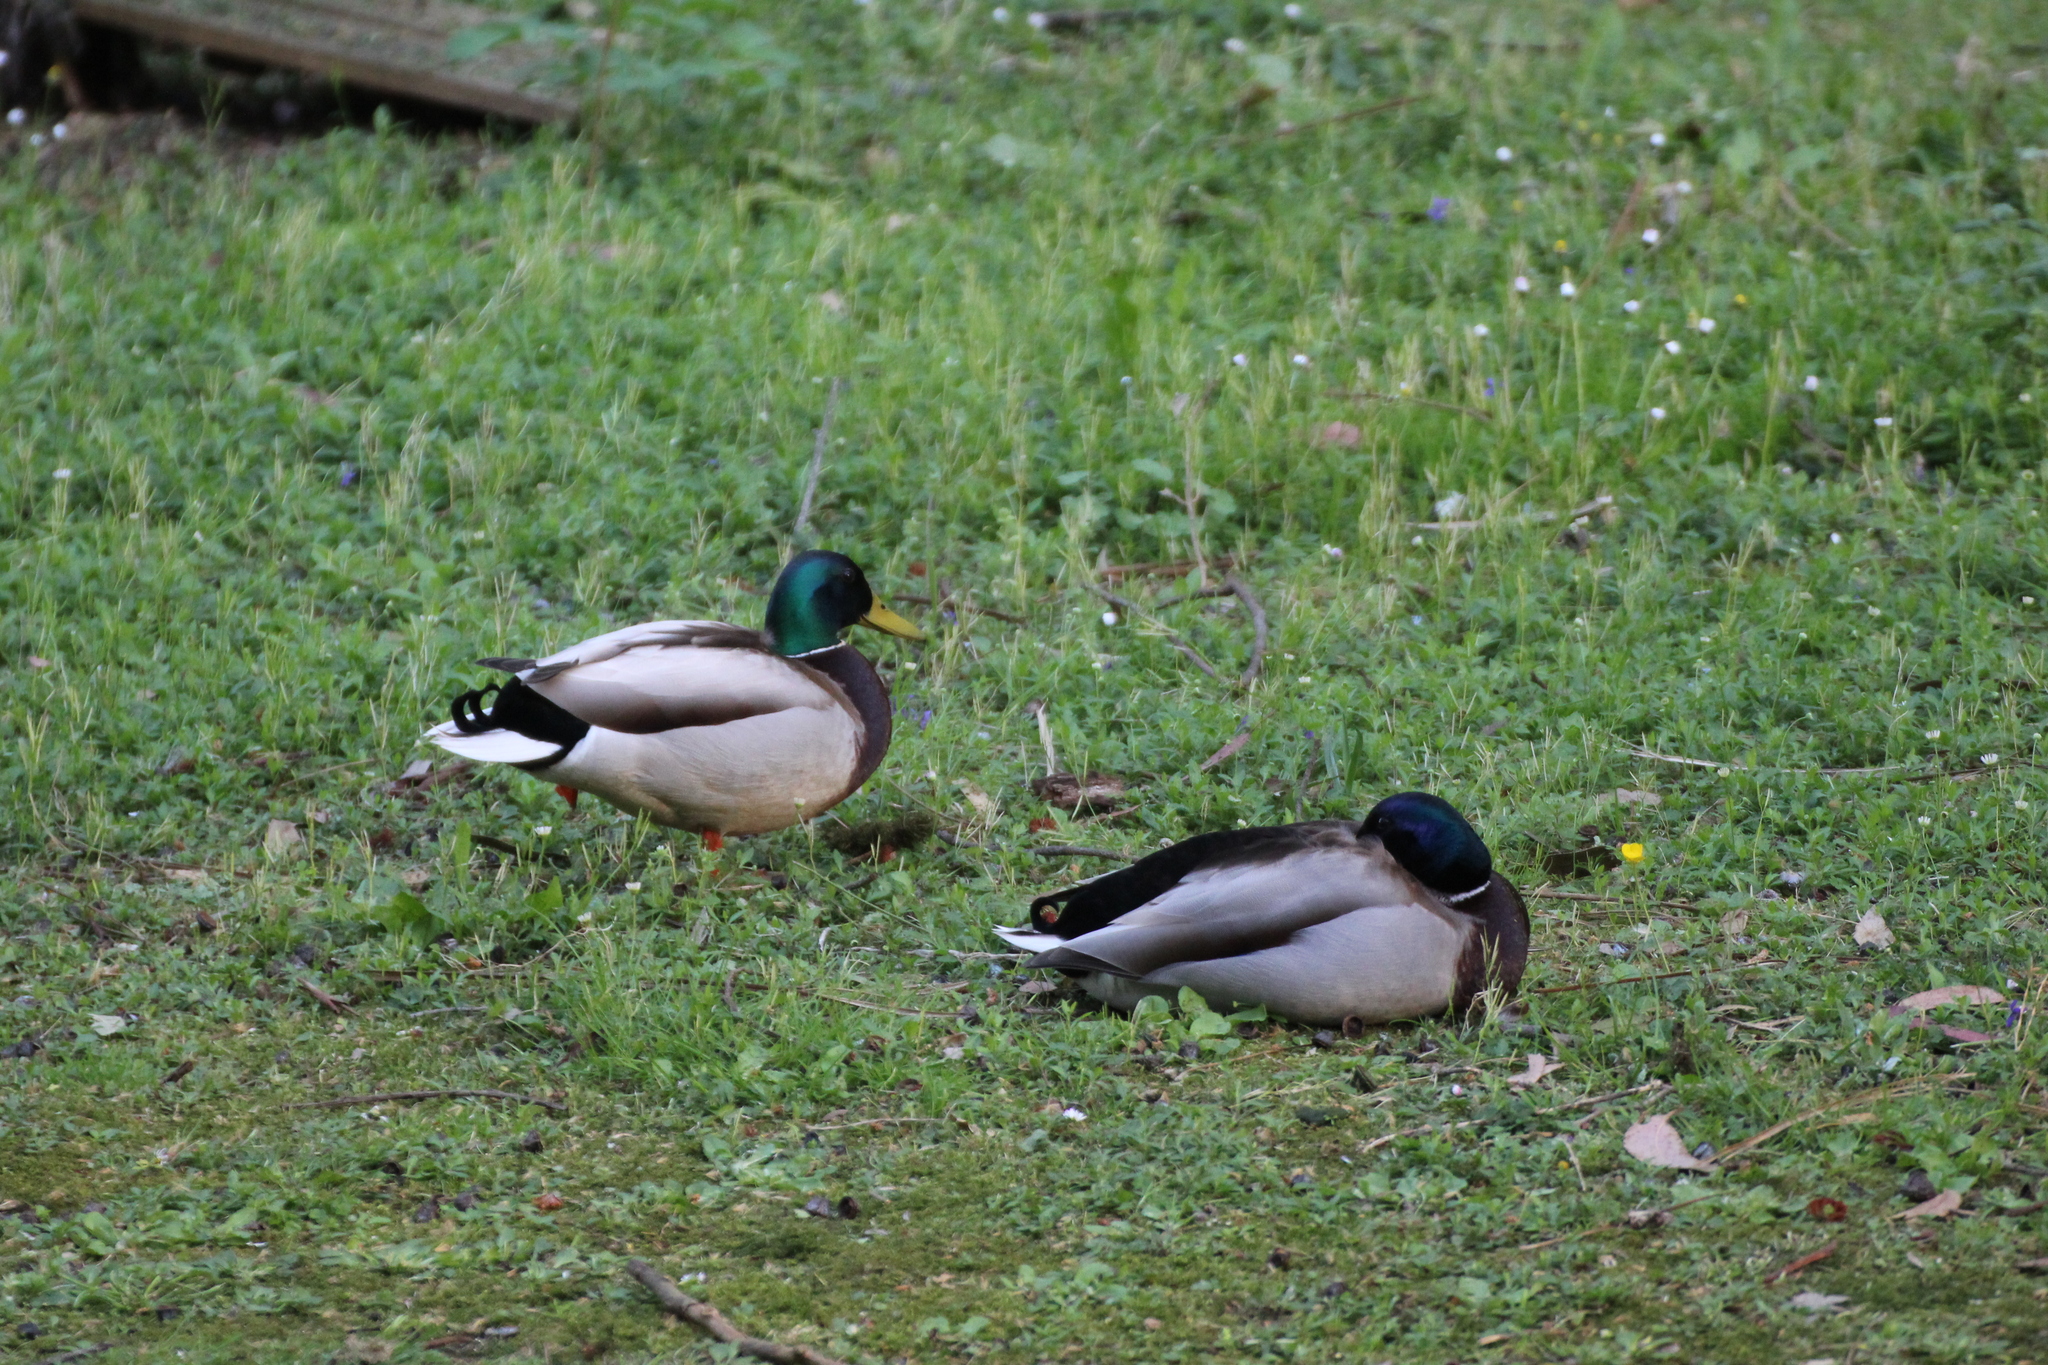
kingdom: Animalia
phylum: Chordata
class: Aves
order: Anseriformes
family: Anatidae
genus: Anas
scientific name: Anas platyrhynchos
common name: Mallard
